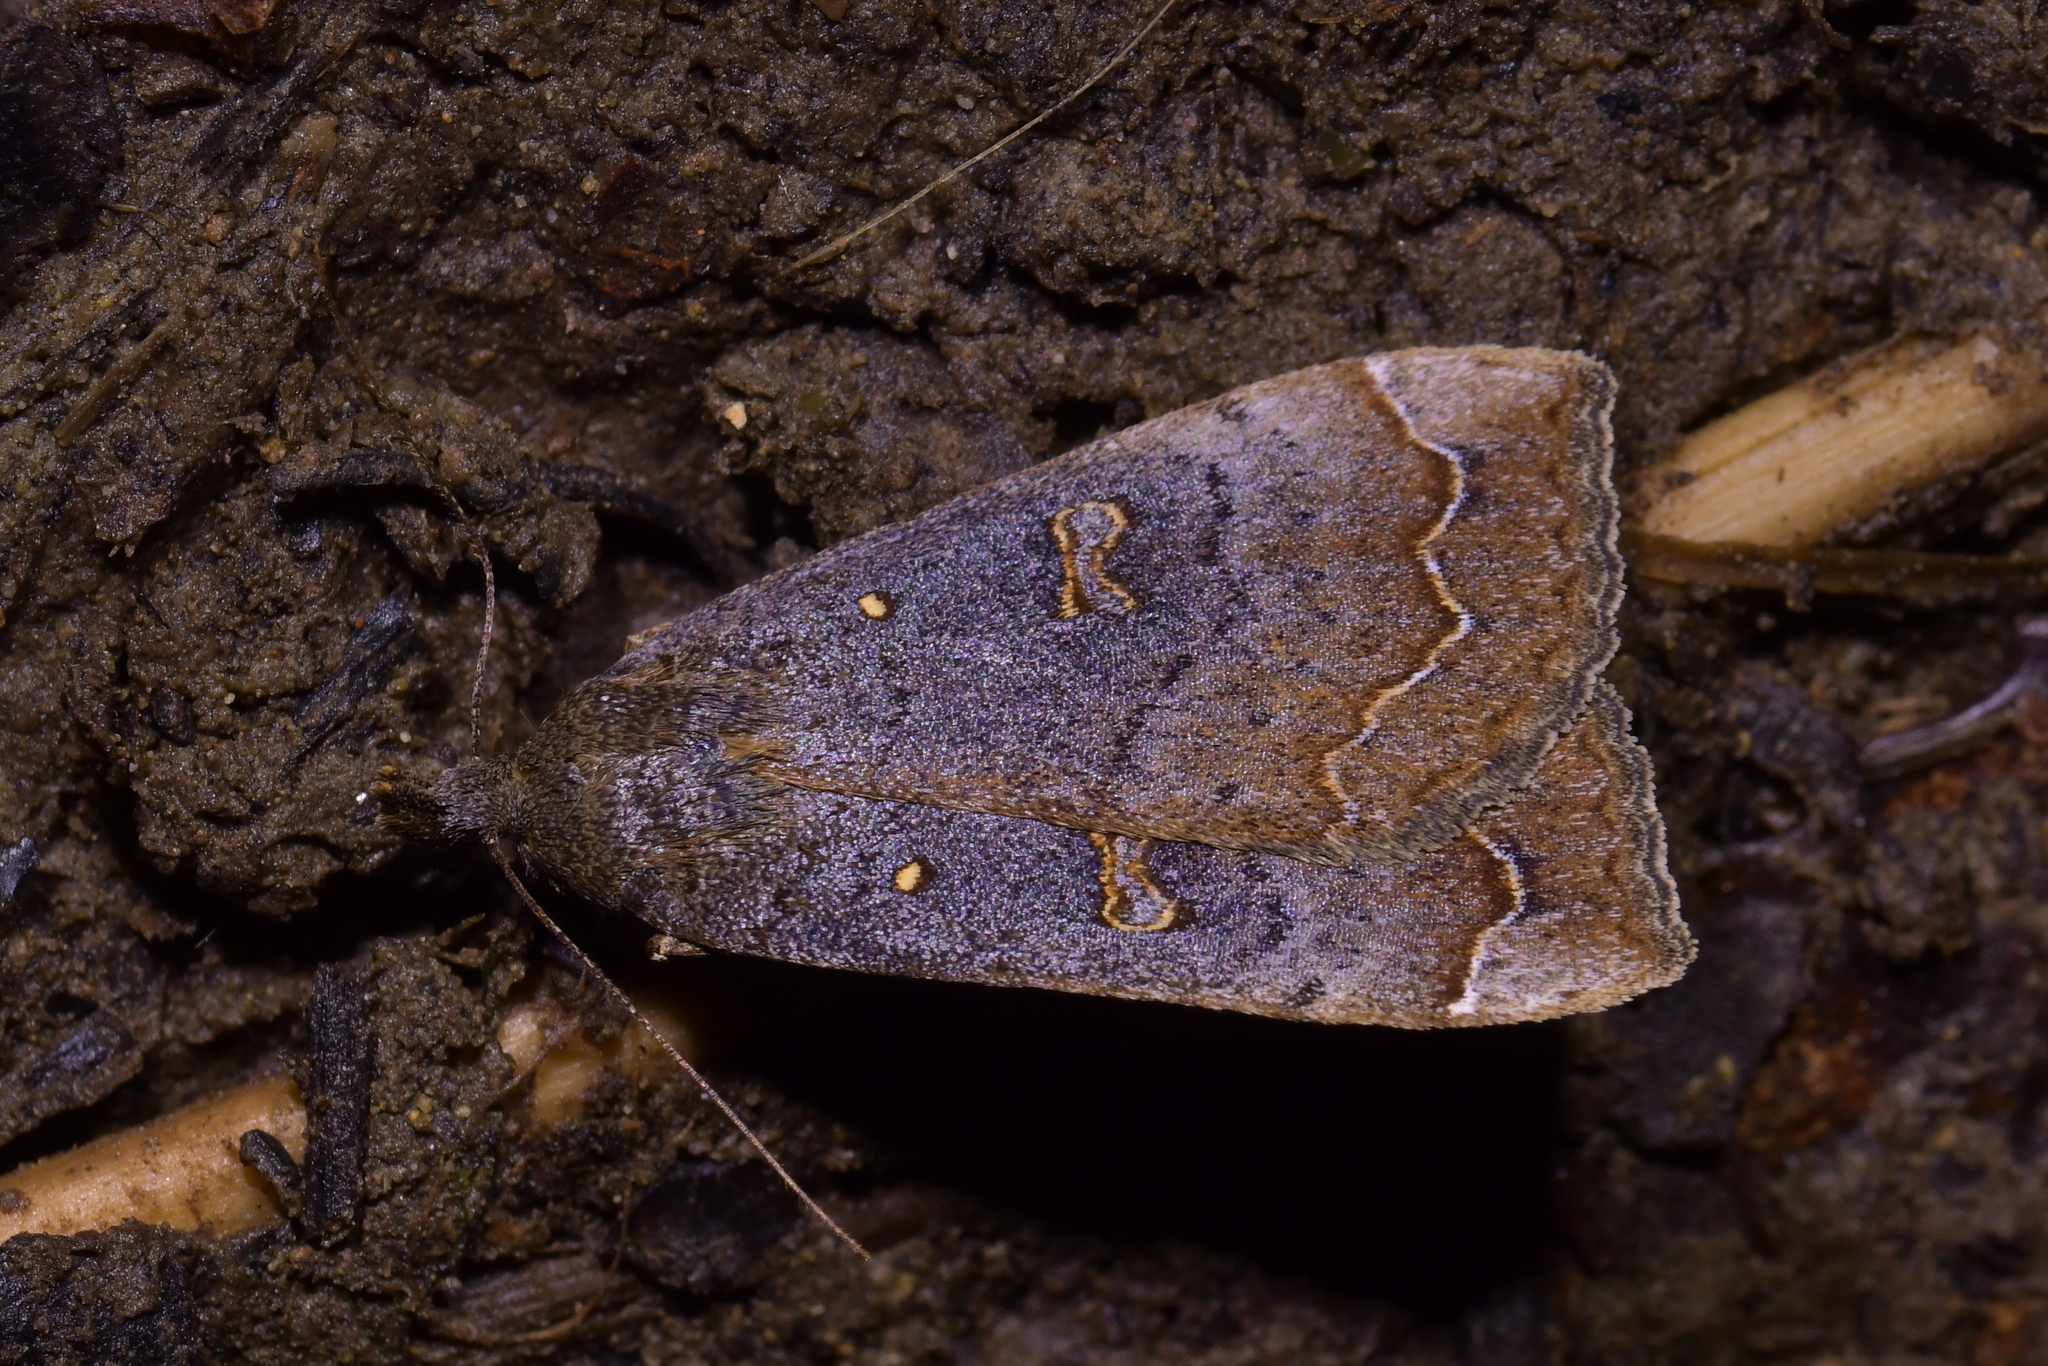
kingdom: Animalia
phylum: Arthropoda
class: Insecta
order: Lepidoptera
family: Erebidae
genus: Rhapsa
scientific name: Rhapsa scotosialis
